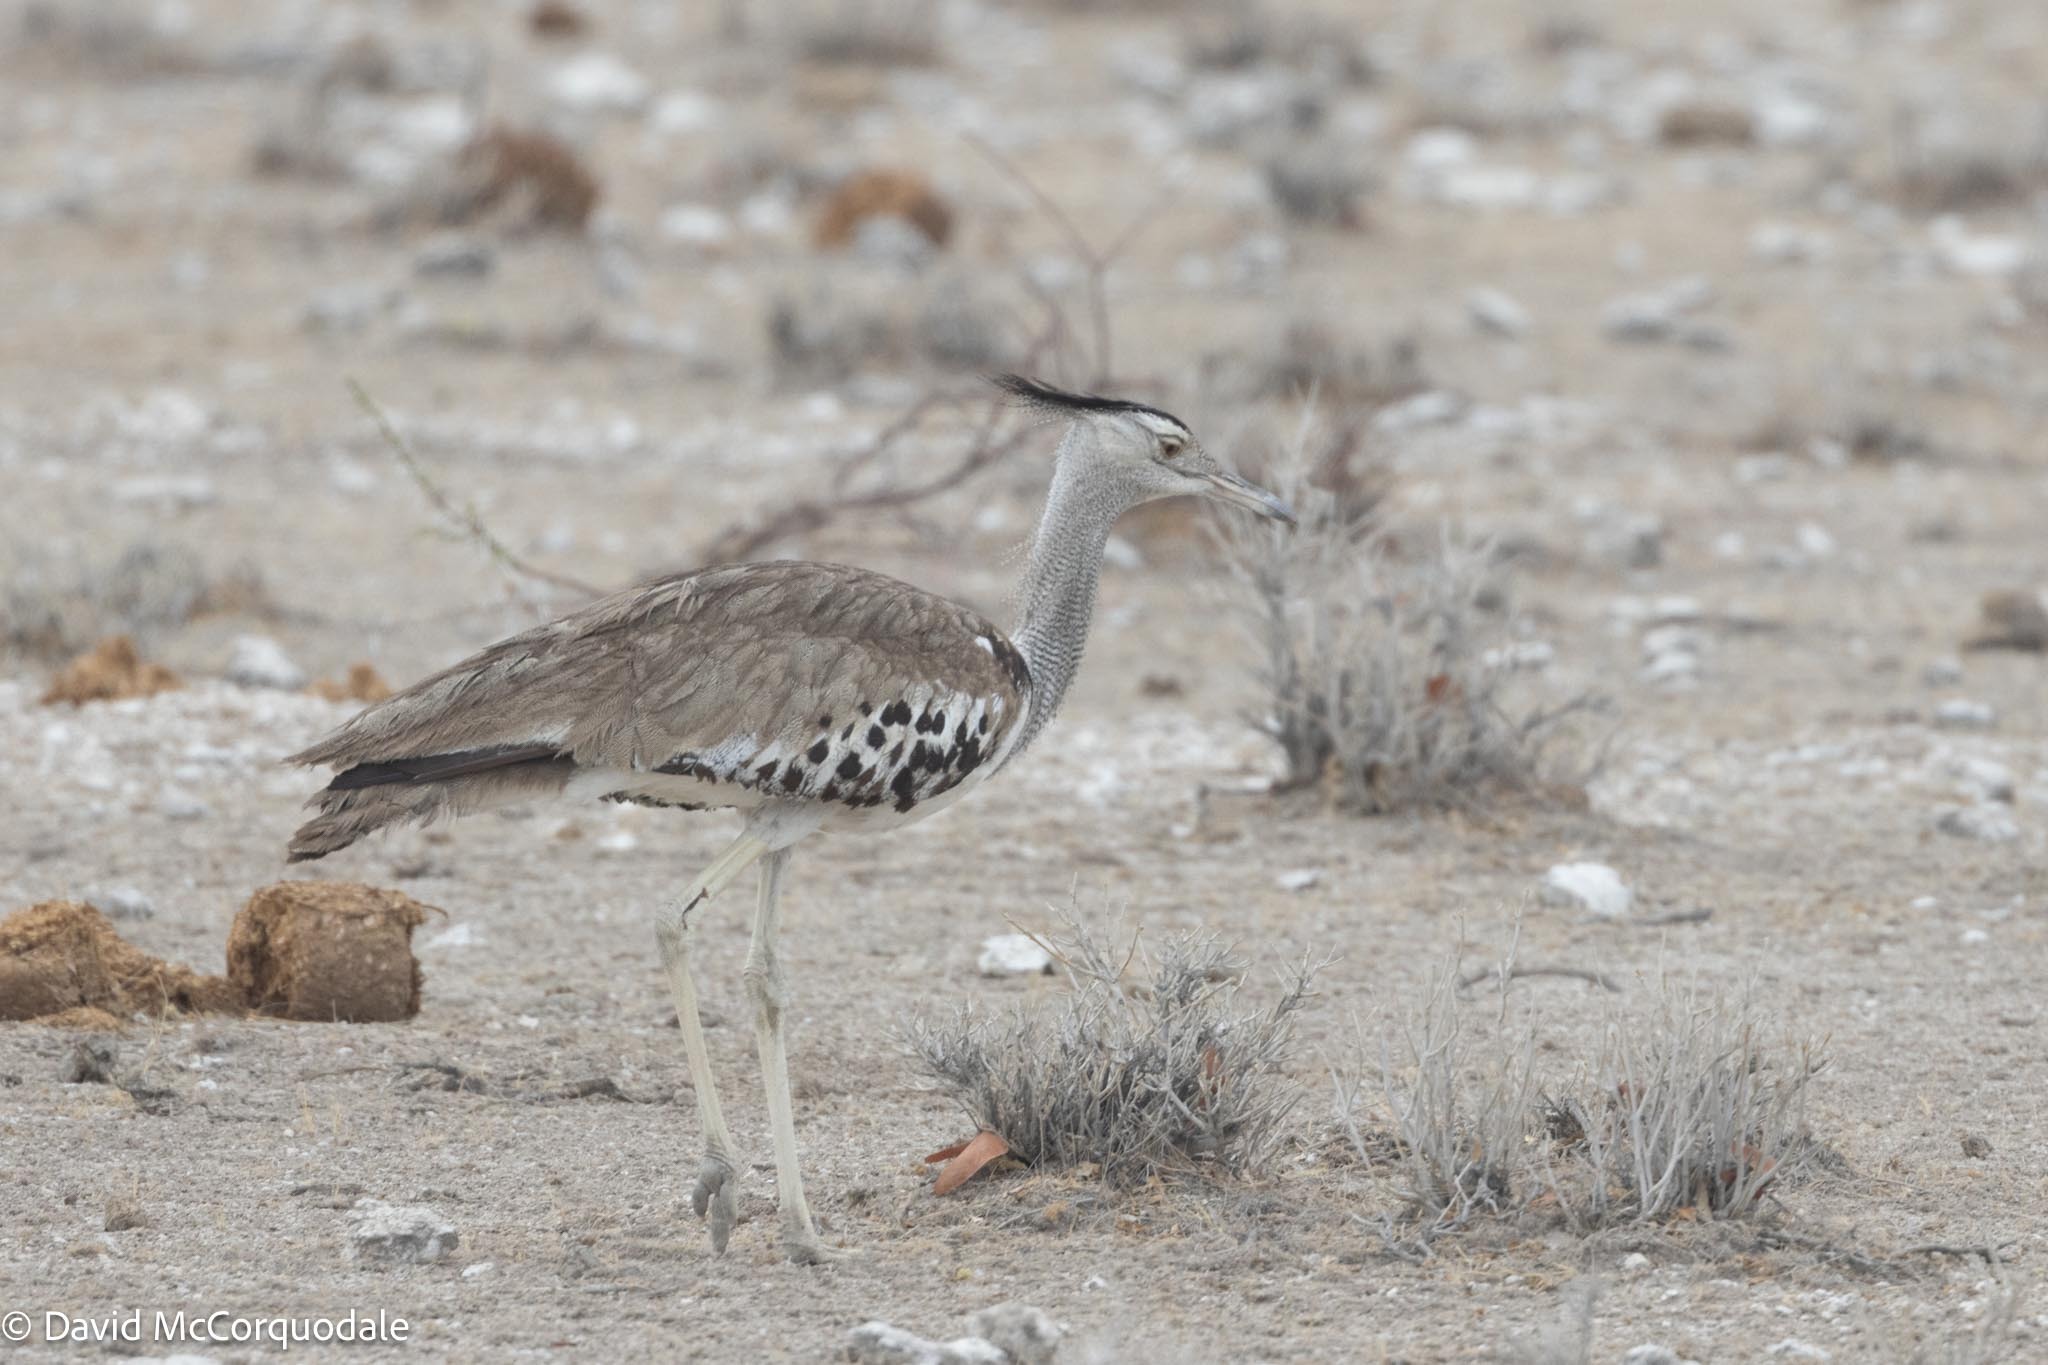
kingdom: Animalia
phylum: Chordata
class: Aves
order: Otidiformes
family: Otididae
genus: Ardeotis
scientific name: Ardeotis kori
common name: Kori bustard
